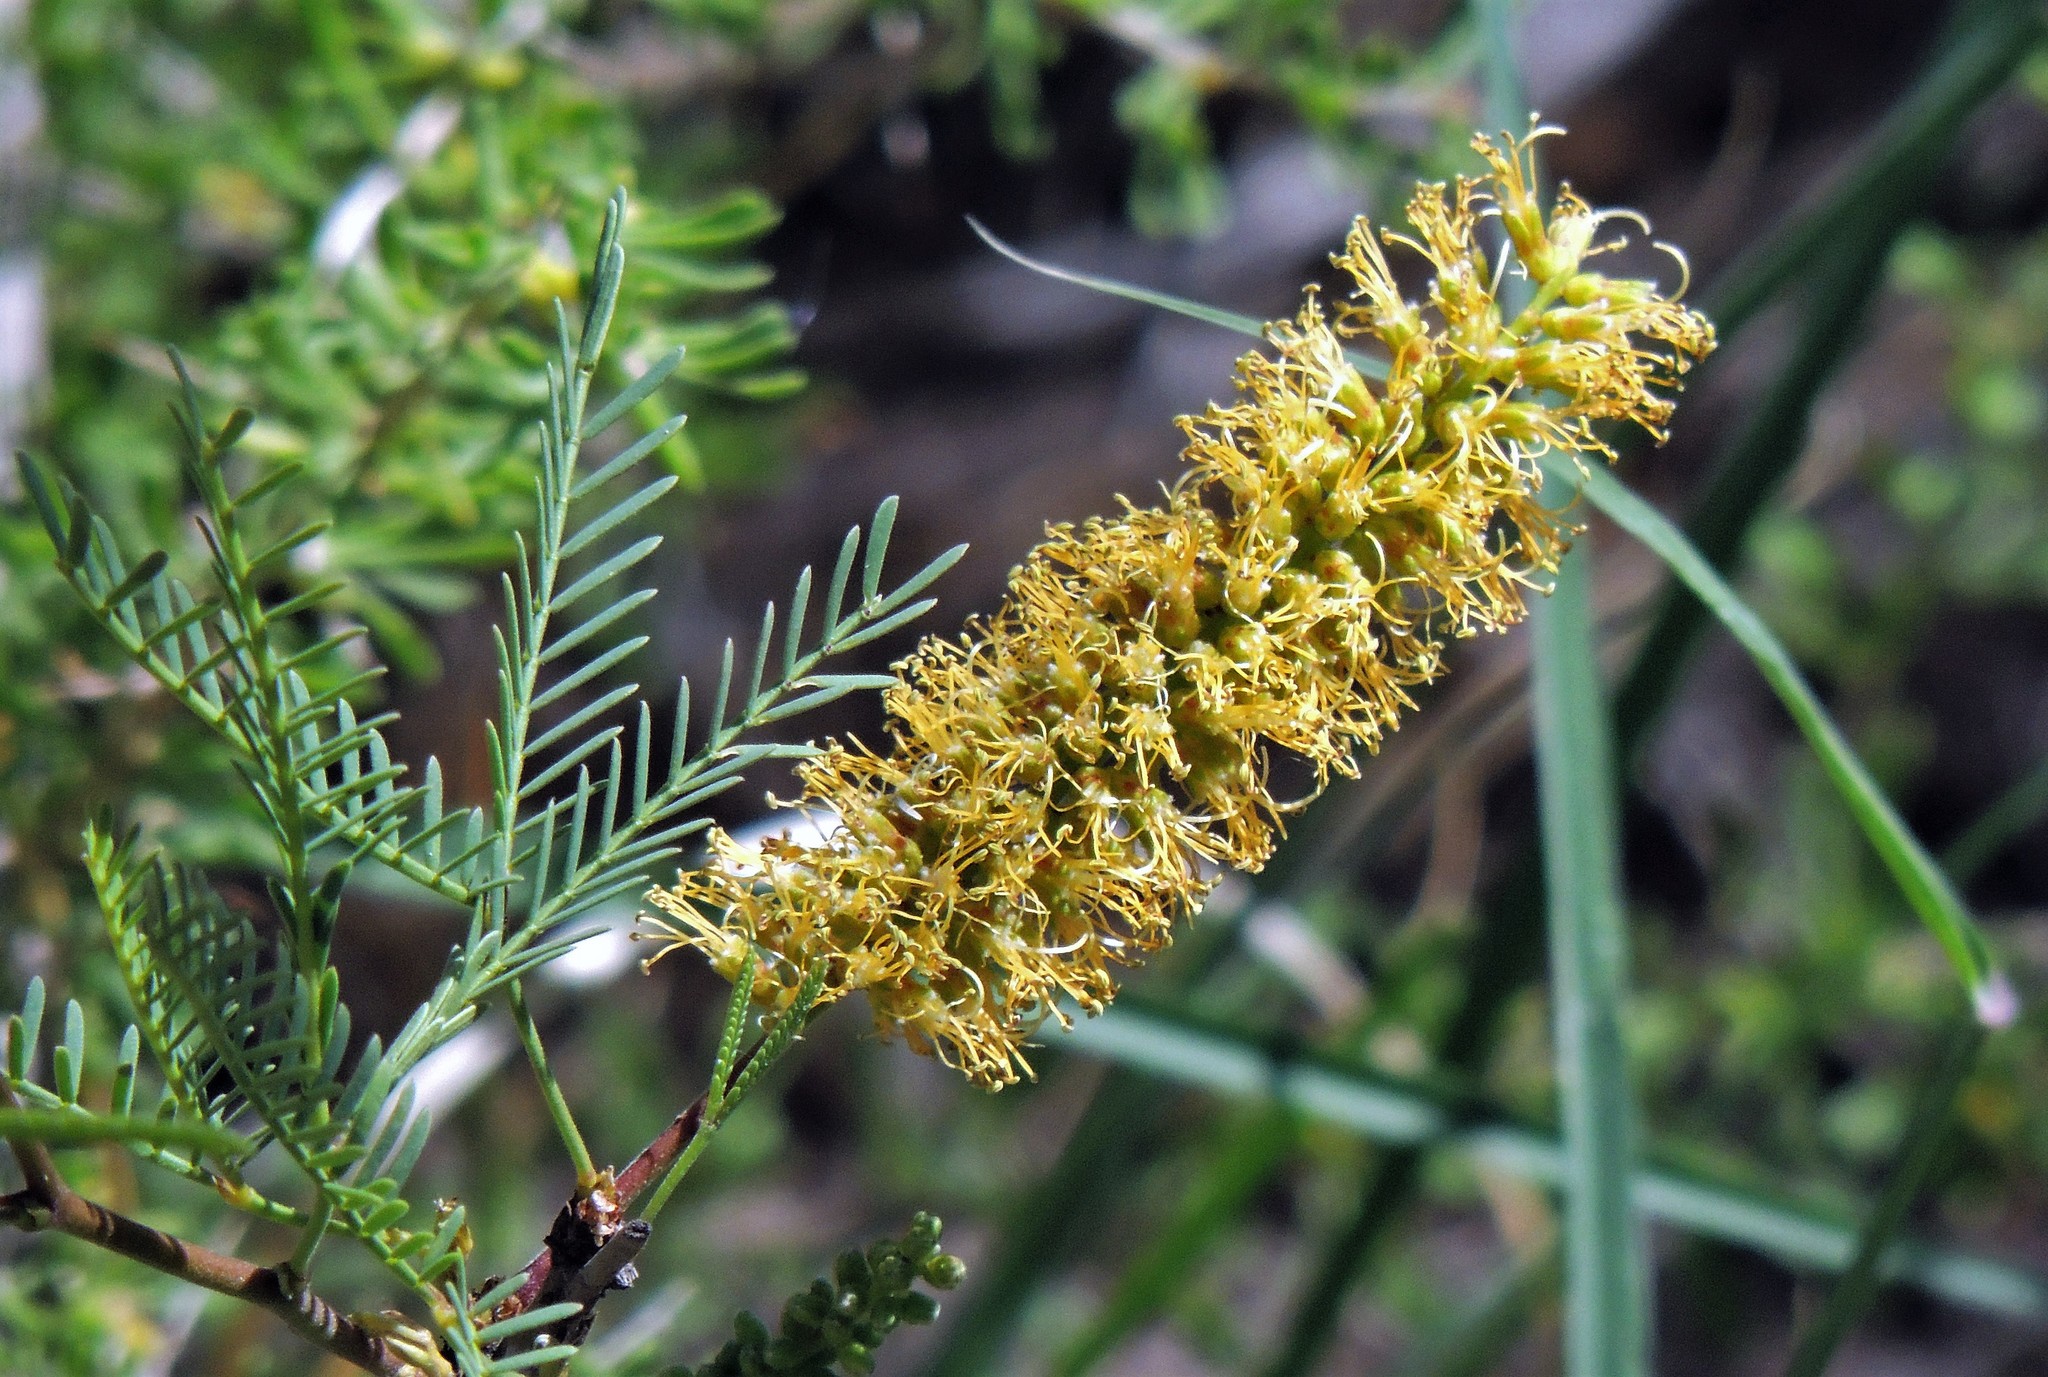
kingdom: Plantae
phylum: Tracheophyta
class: Magnoliopsida
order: Fabales
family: Fabaceae
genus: Prosopis
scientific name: Prosopis flexuosa
